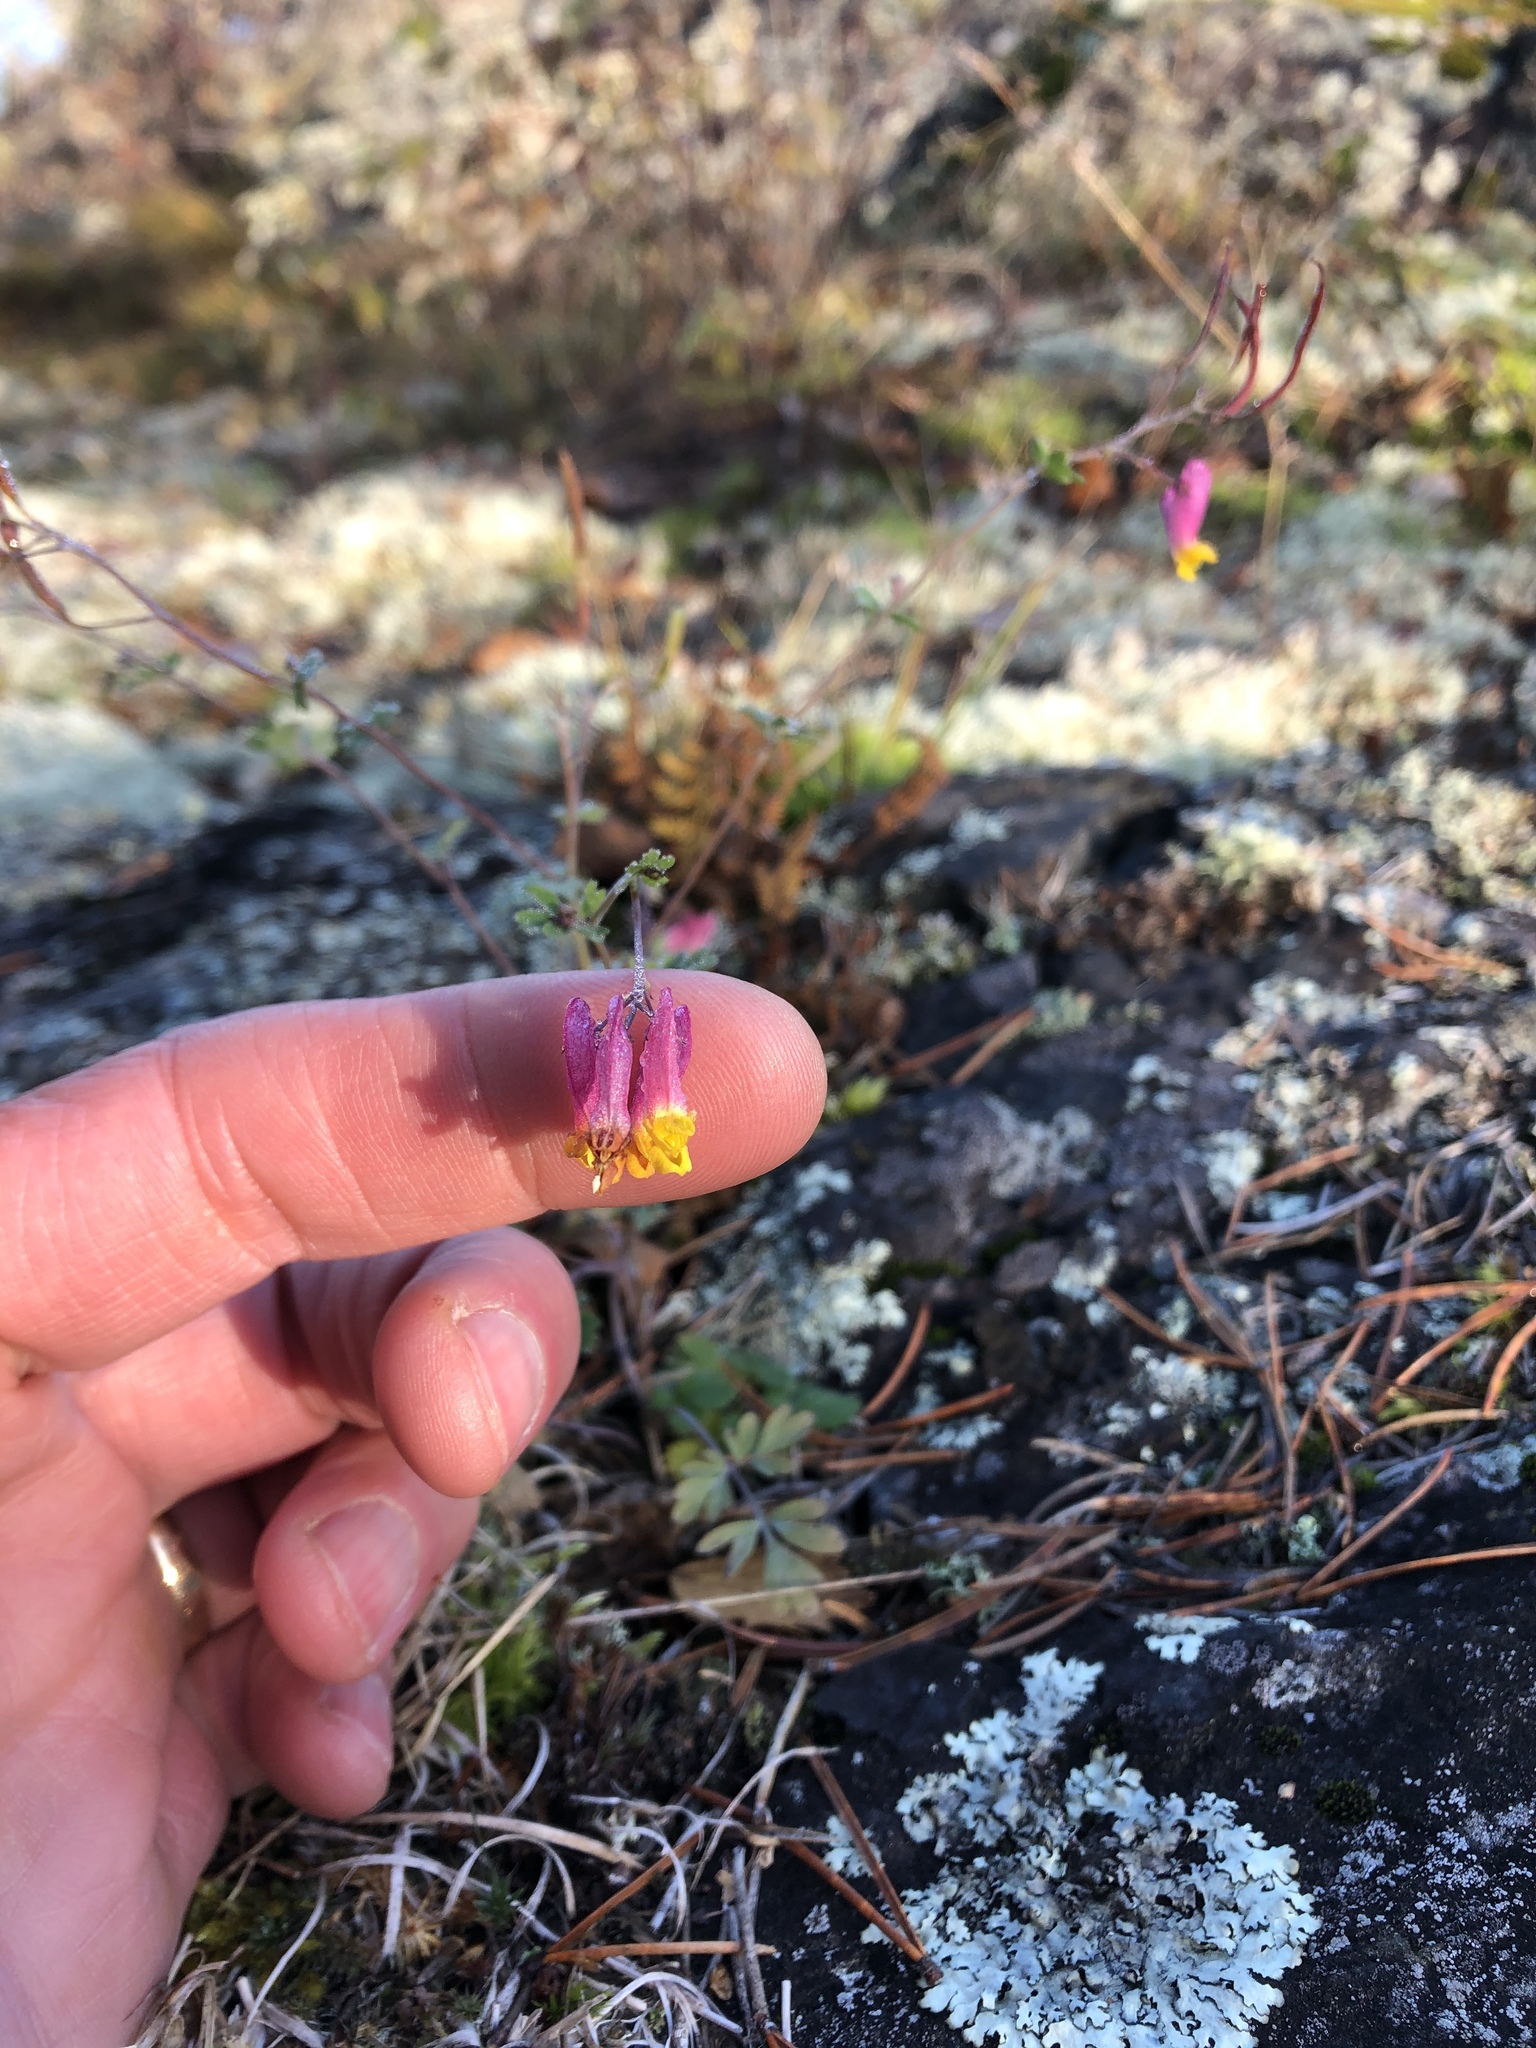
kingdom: Plantae
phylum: Tracheophyta
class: Magnoliopsida
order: Ranunculales
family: Papaveraceae
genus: Capnoides
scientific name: Capnoides sempervirens
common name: Rock harlequin
